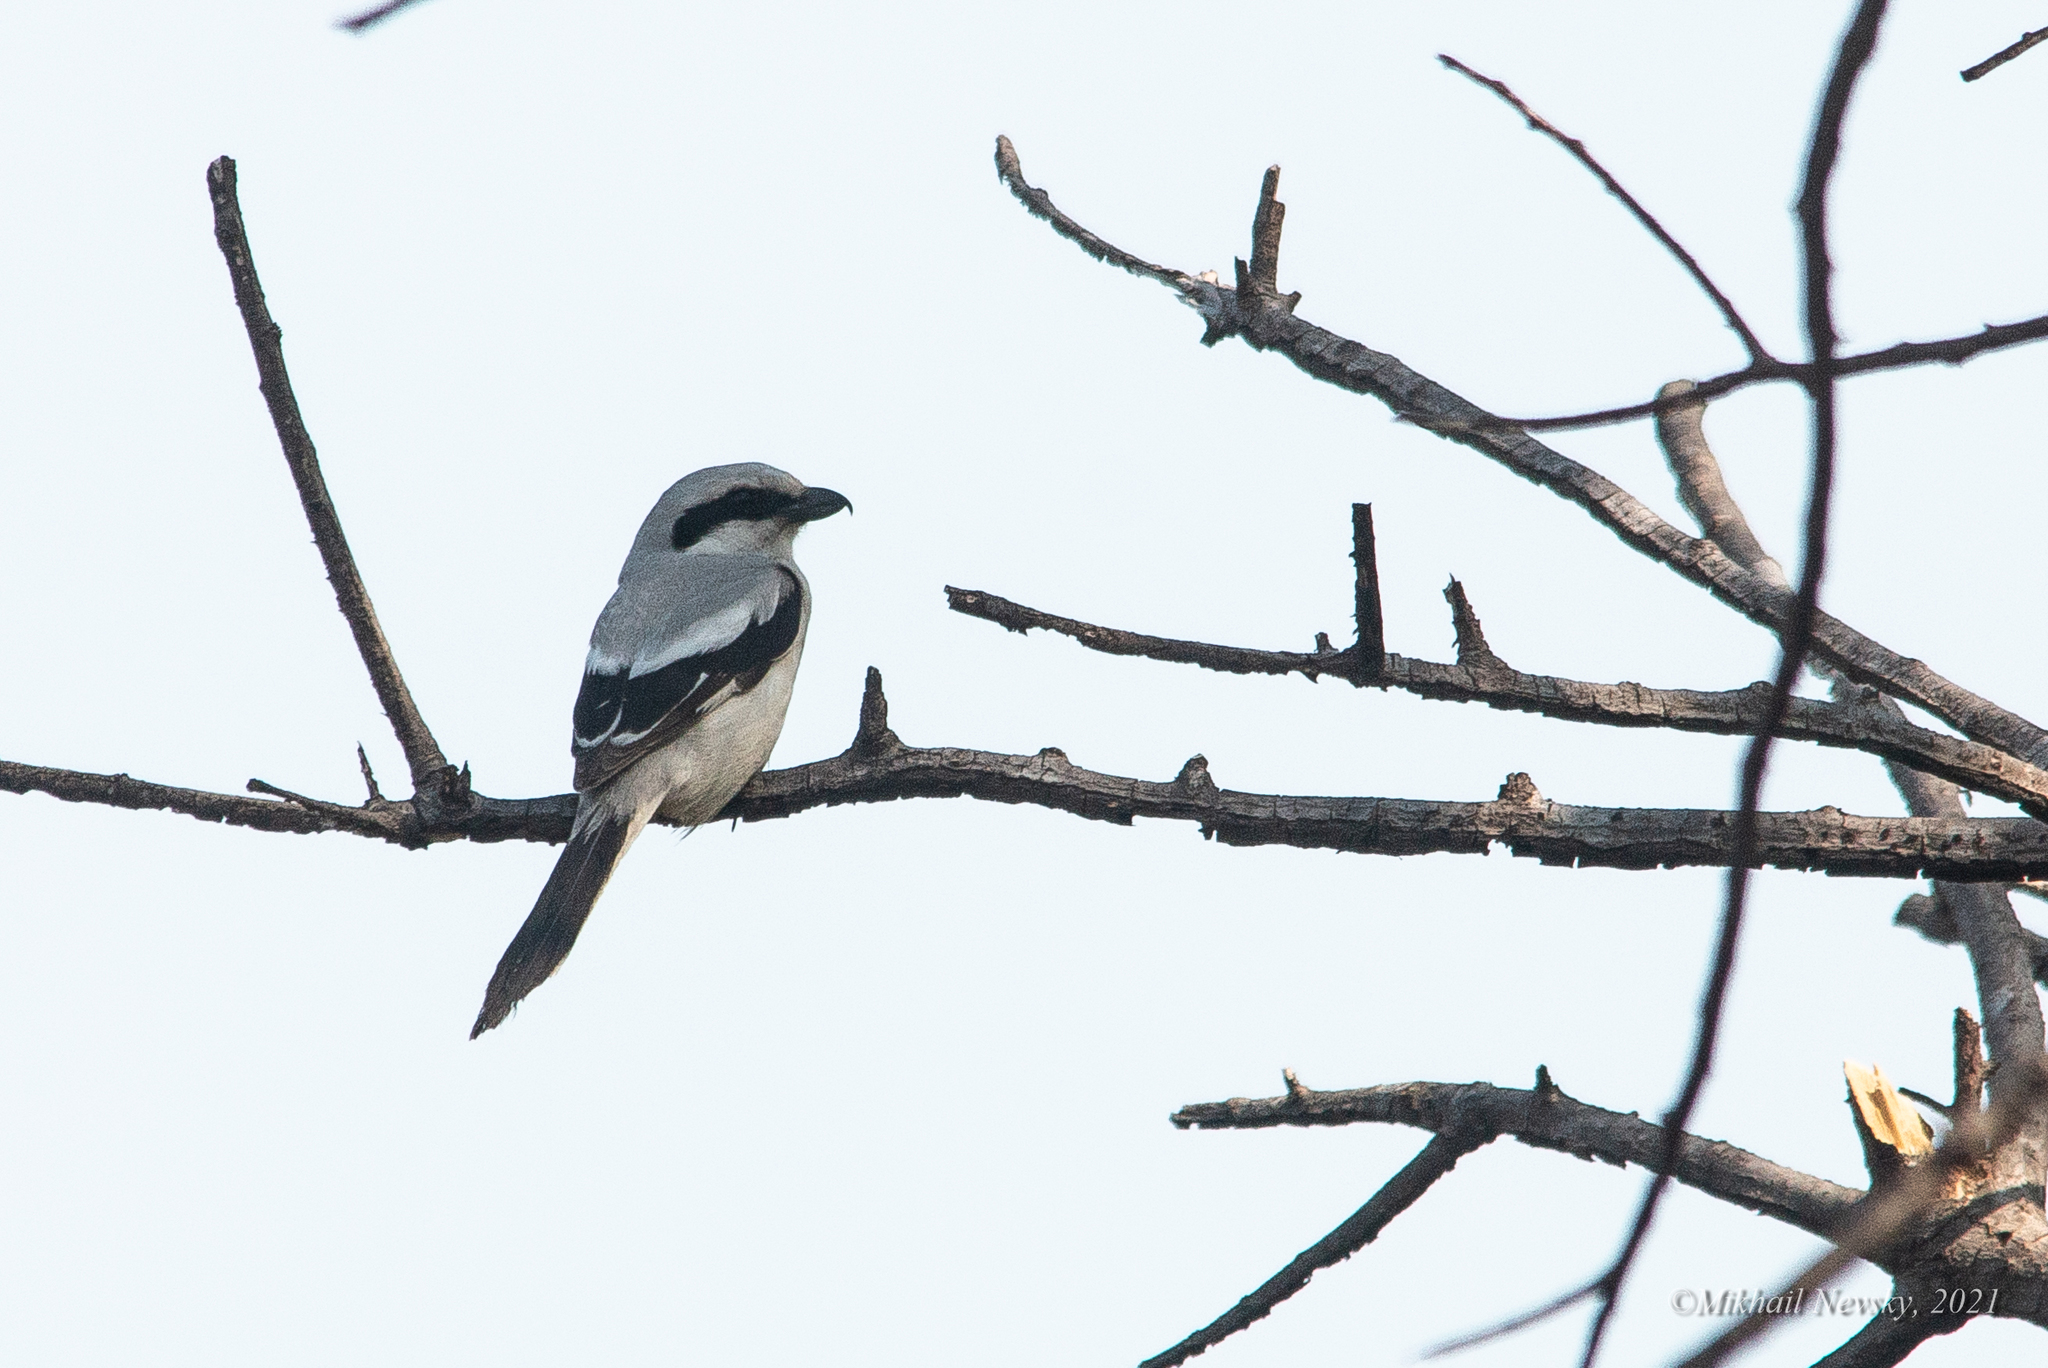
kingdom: Animalia
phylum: Chordata
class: Aves
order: Passeriformes
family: Laniidae
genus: Lanius
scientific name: Lanius sphenocercus
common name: Chinese grey shrike
